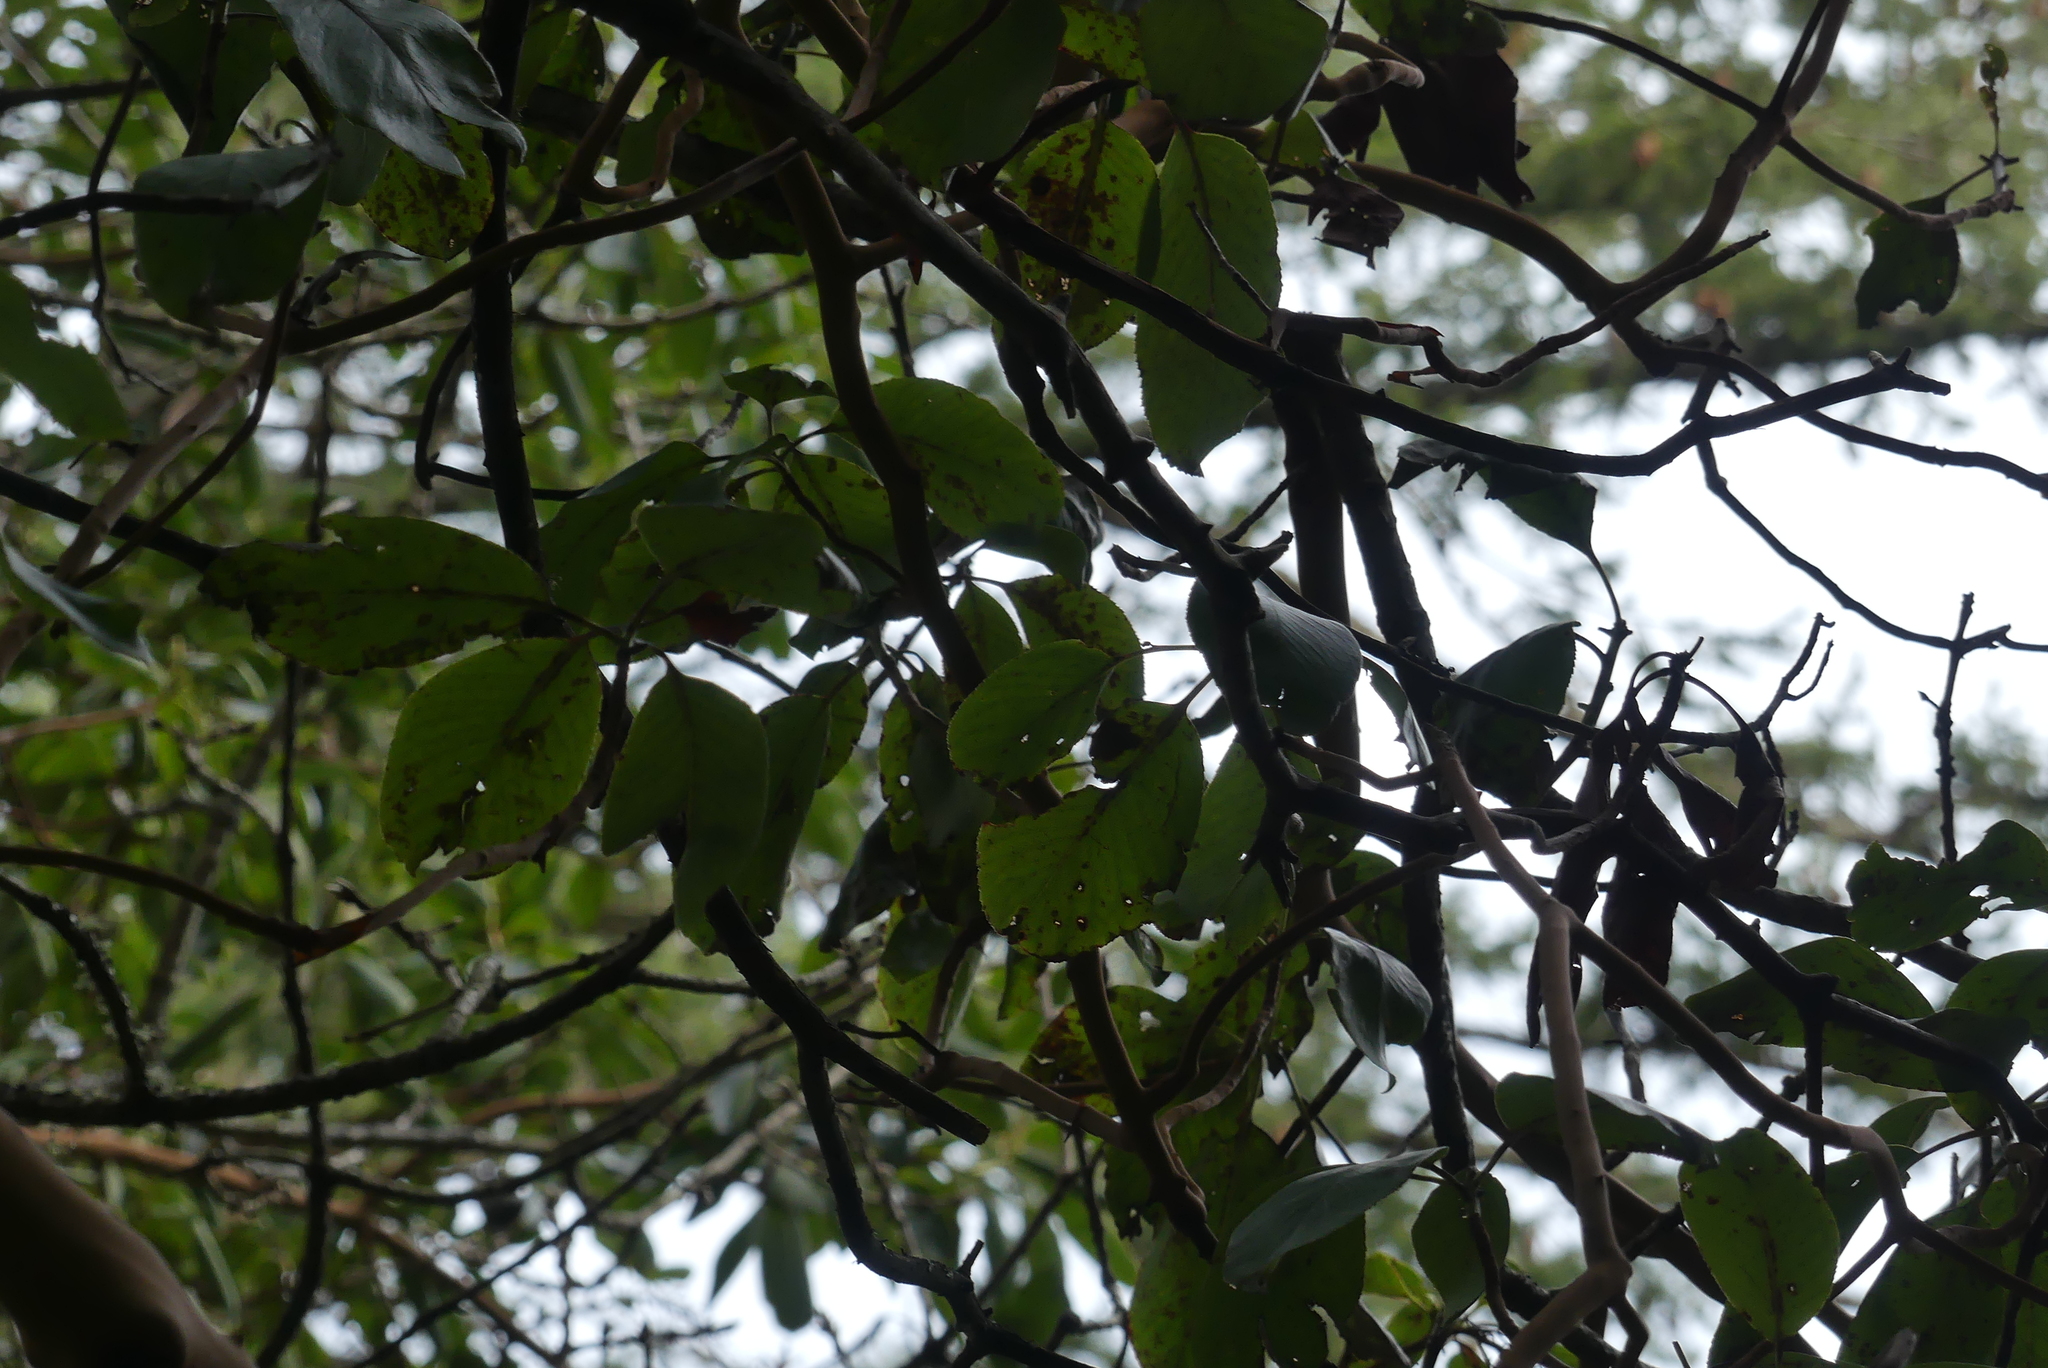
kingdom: Plantae
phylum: Tracheophyta
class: Magnoliopsida
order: Ericales
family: Ericaceae
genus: Arbutus
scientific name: Arbutus menziesii
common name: Pacific madrone
